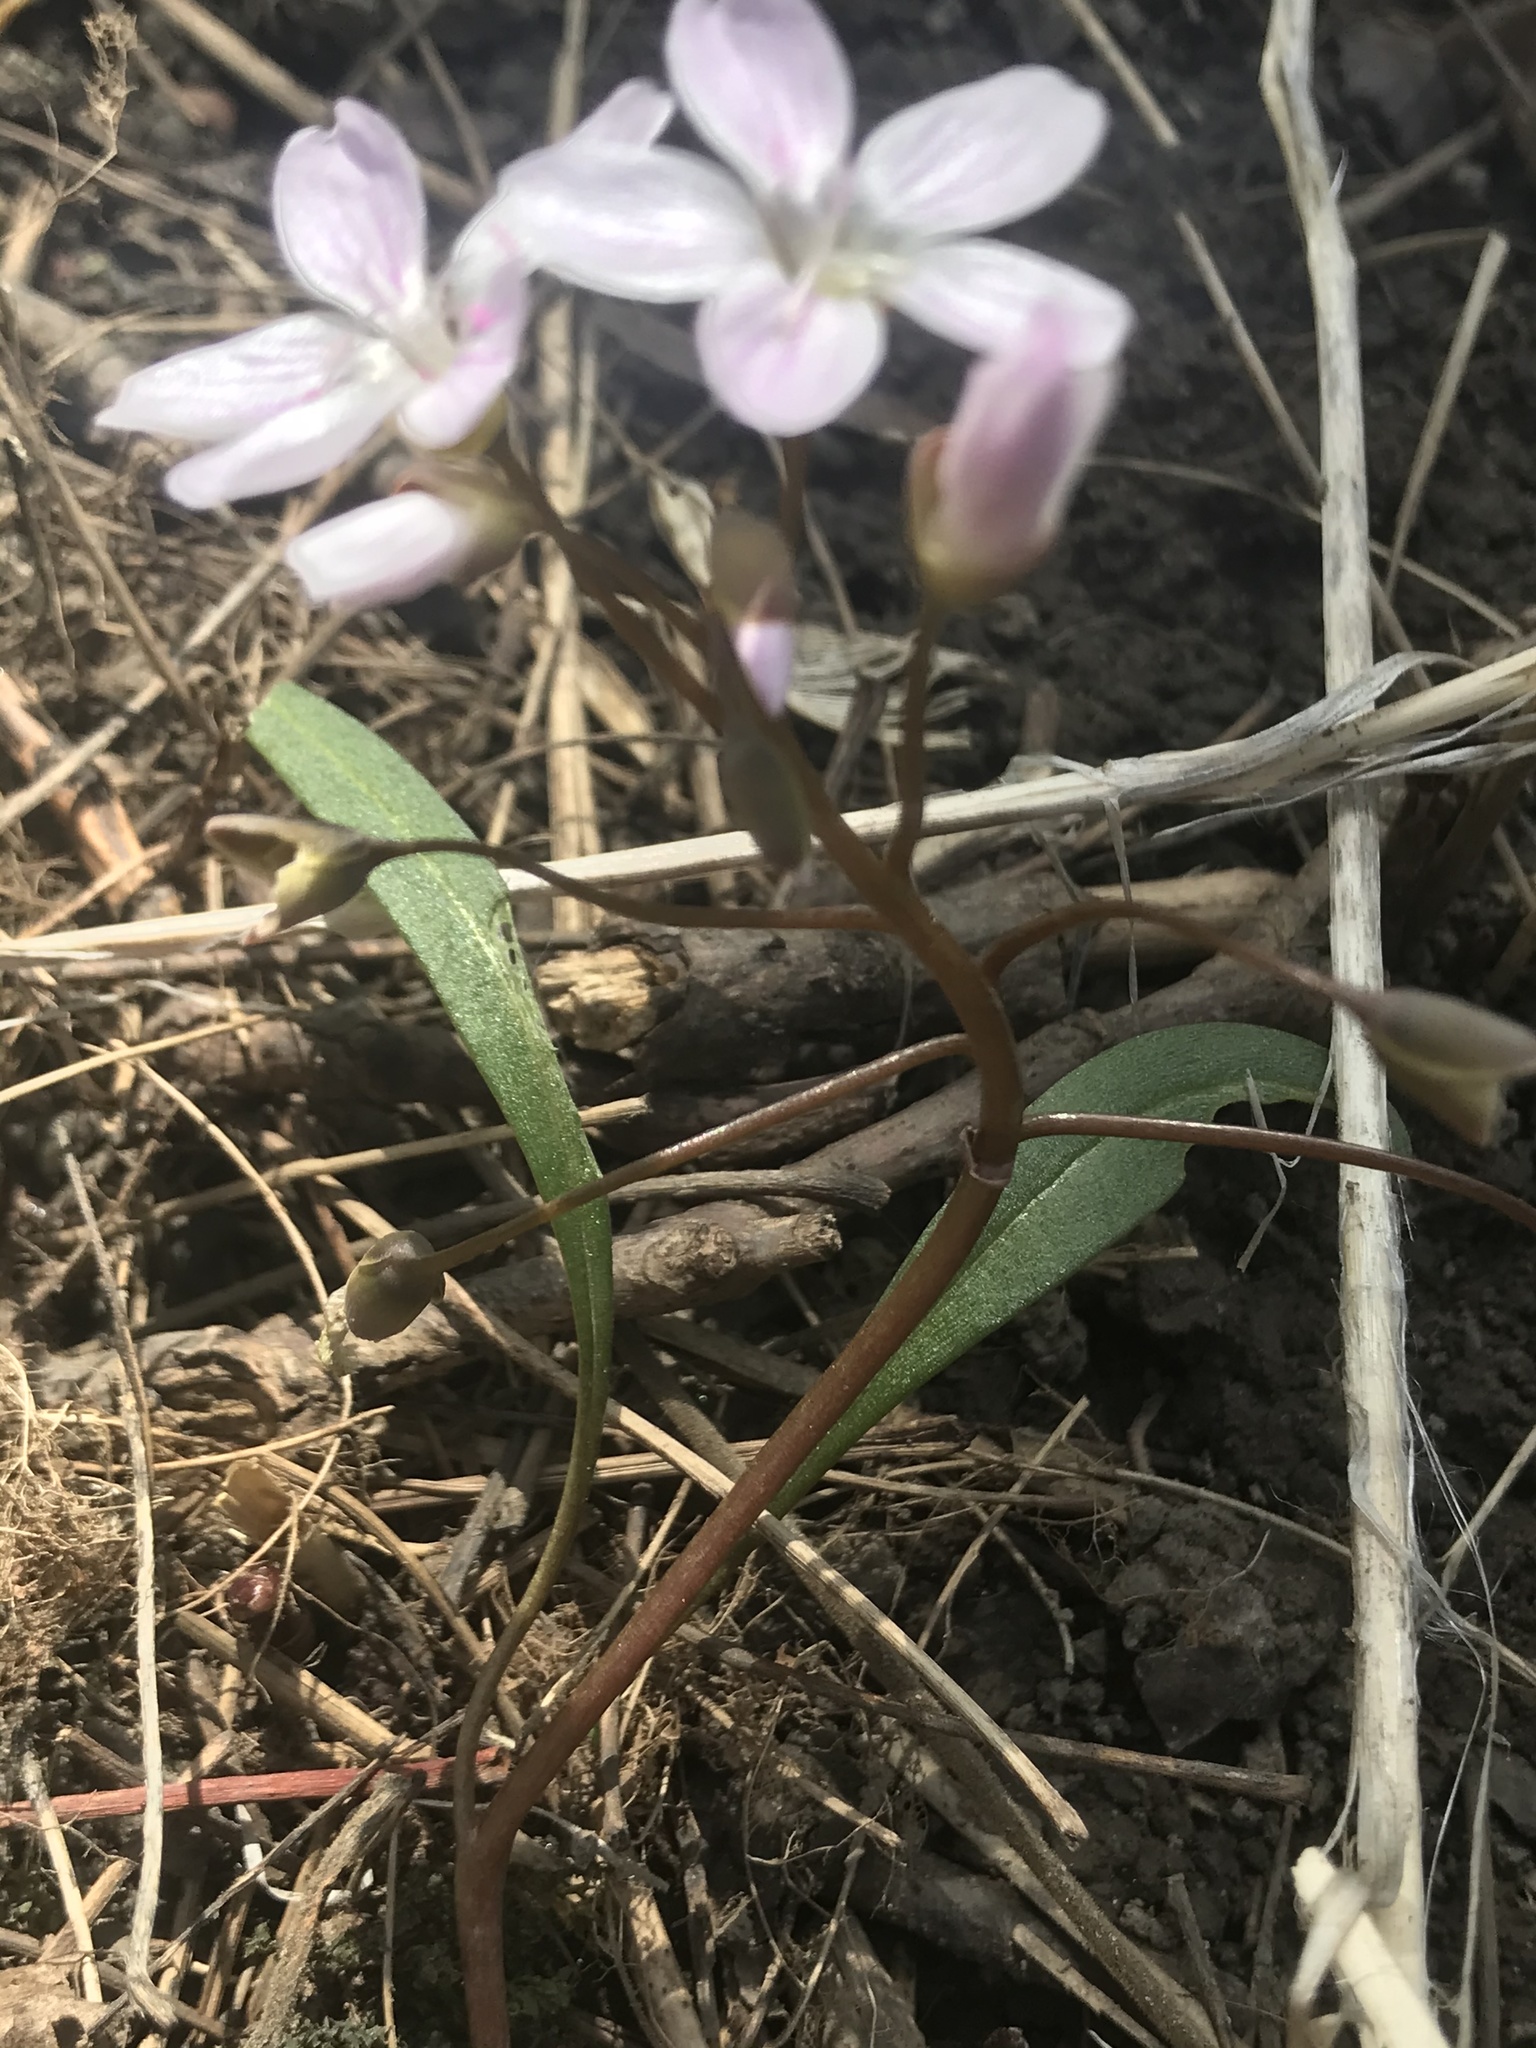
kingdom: Plantae
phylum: Tracheophyta
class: Magnoliopsida
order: Caryophyllales
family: Montiaceae
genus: Claytonia
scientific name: Claytonia caroliniana
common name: Carolina spring beauty
